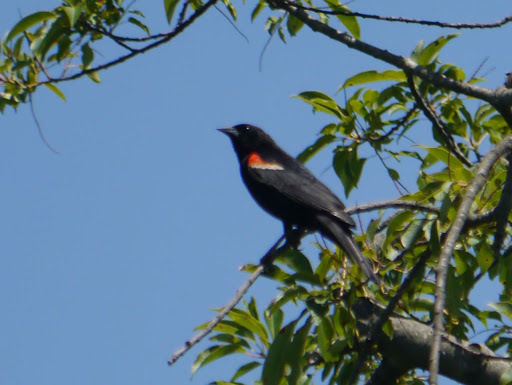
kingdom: Animalia
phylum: Chordata
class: Aves
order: Passeriformes
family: Icteridae
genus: Agelaius
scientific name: Agelaius phoeniceus
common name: Red-winged blackbird
